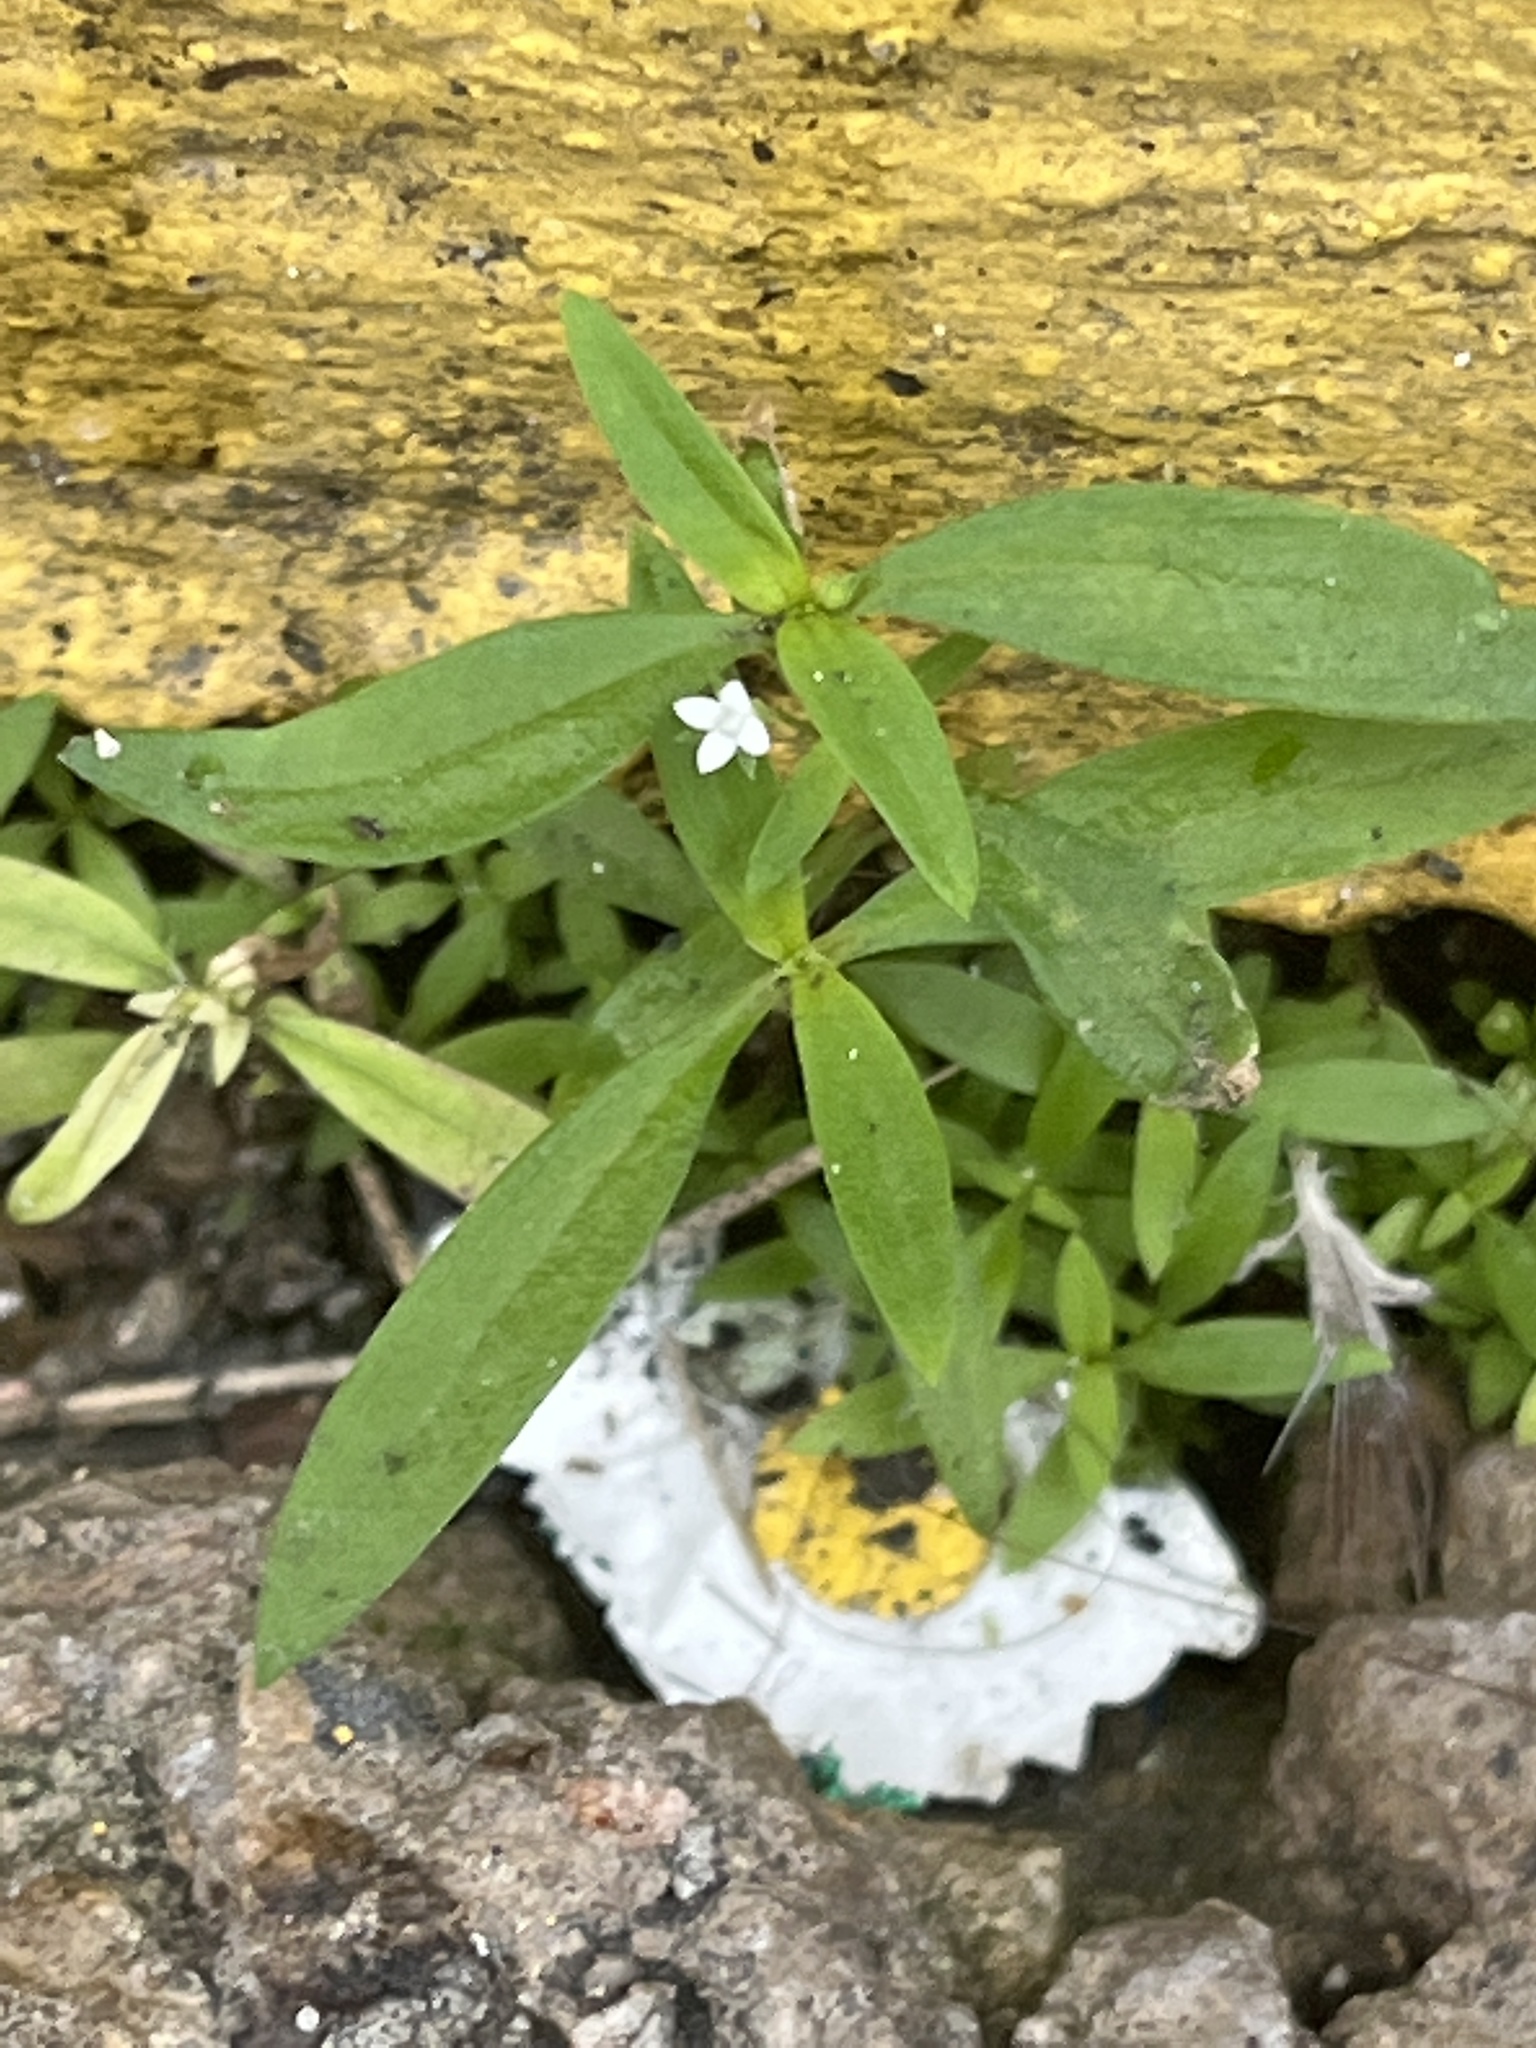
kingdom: Plantae
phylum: Tracheophyta
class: Magnoliopsida
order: Gentianales
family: Rubiaceae
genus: Oldenlandia
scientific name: Oldenlandia corymbosa
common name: Flat-top mille graines
